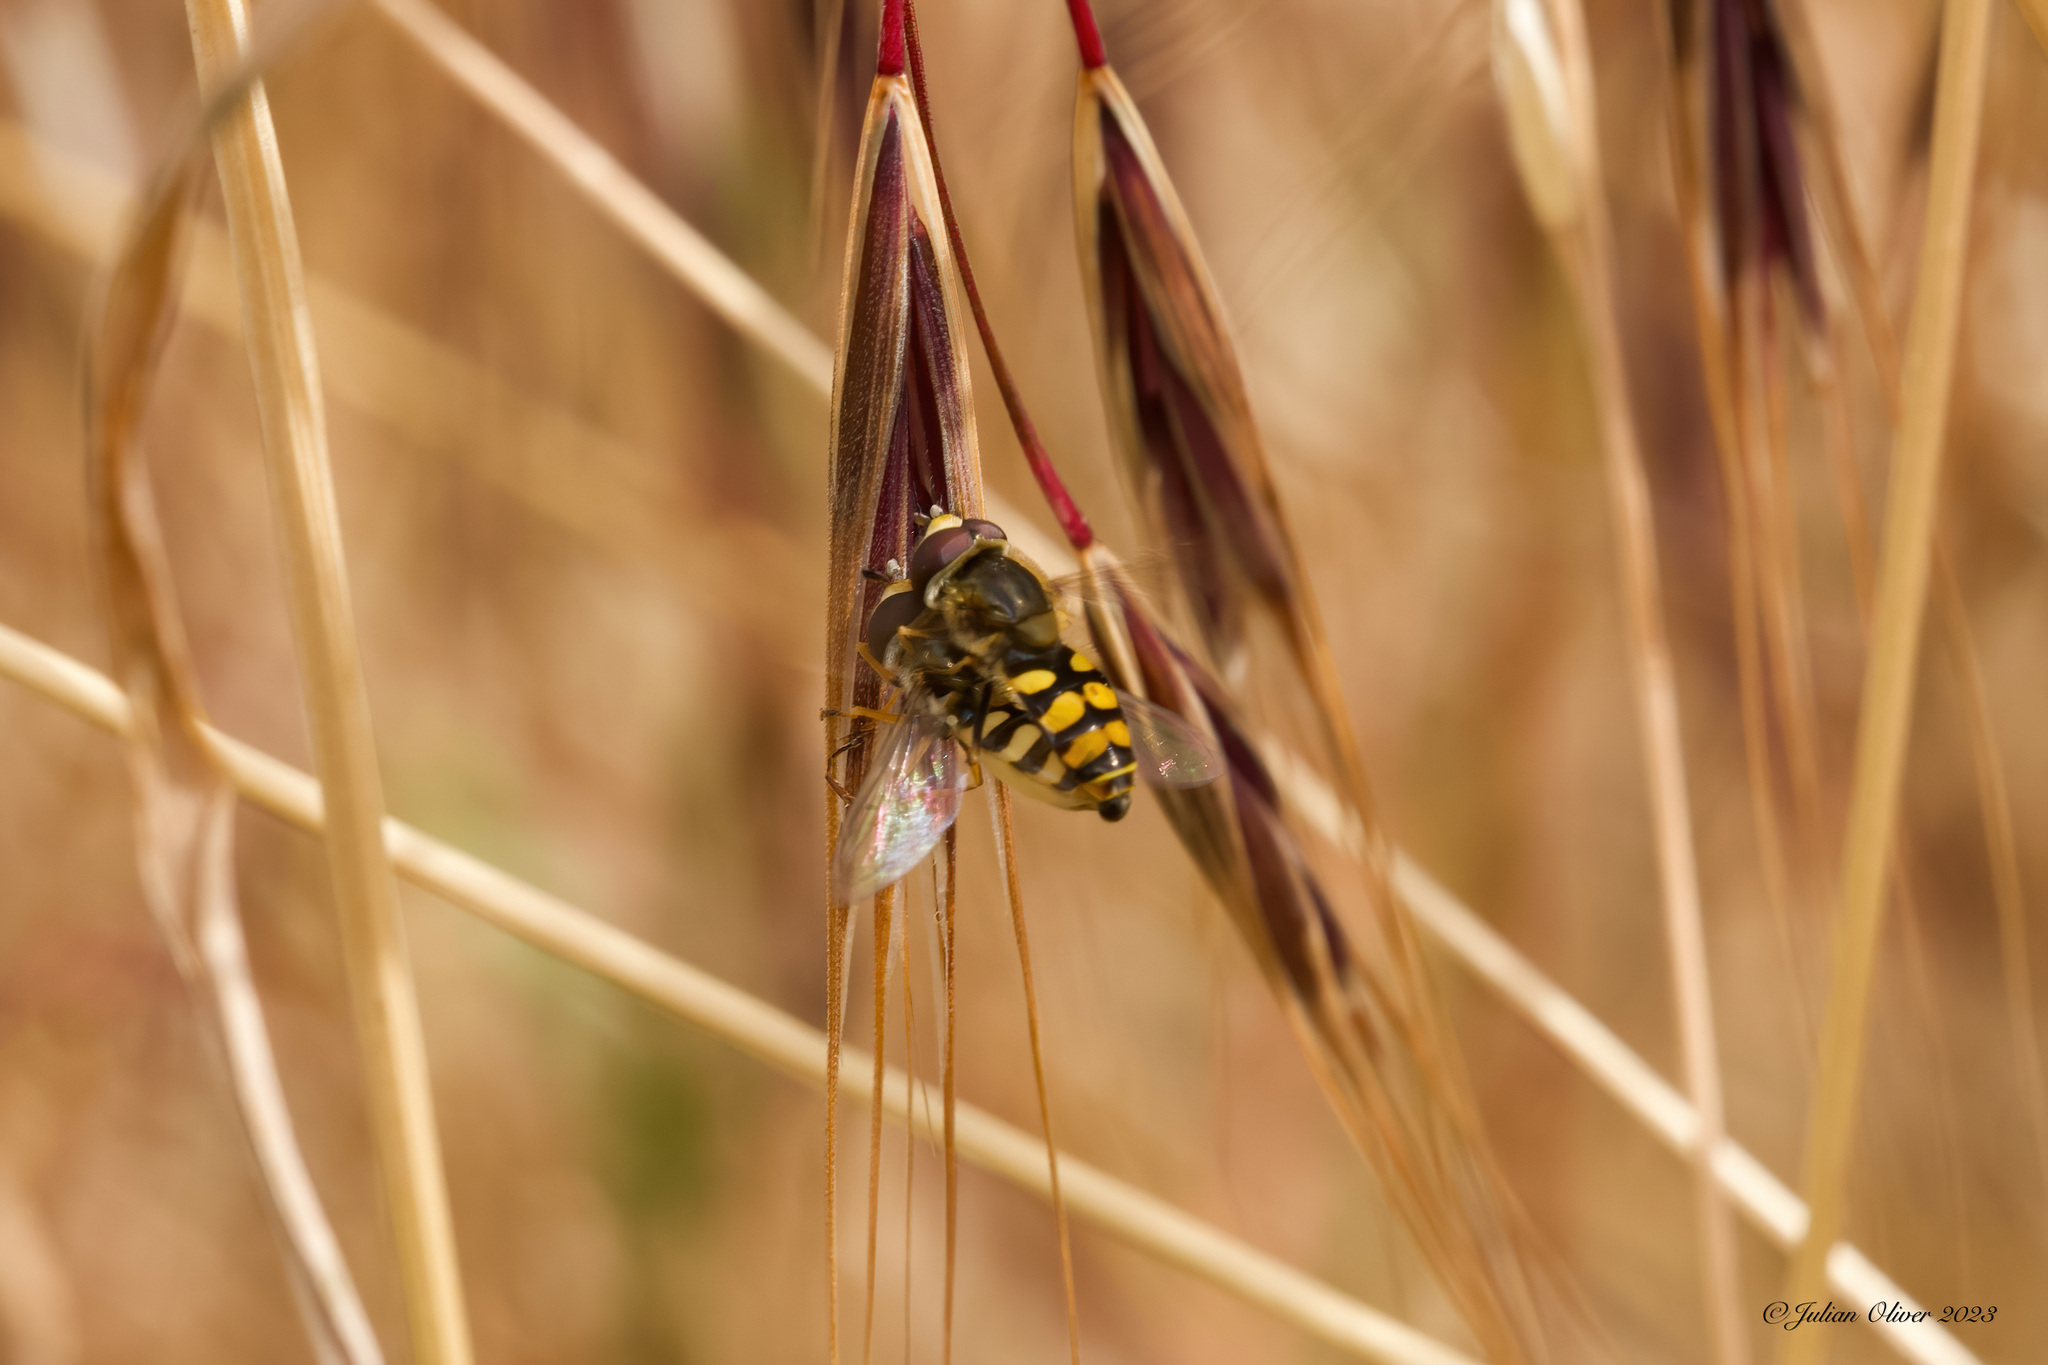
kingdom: Animalia
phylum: Arthropoda
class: Insecta
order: Diptera
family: Syrphidae
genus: Eupeodes
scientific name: Eupeodes corollae
